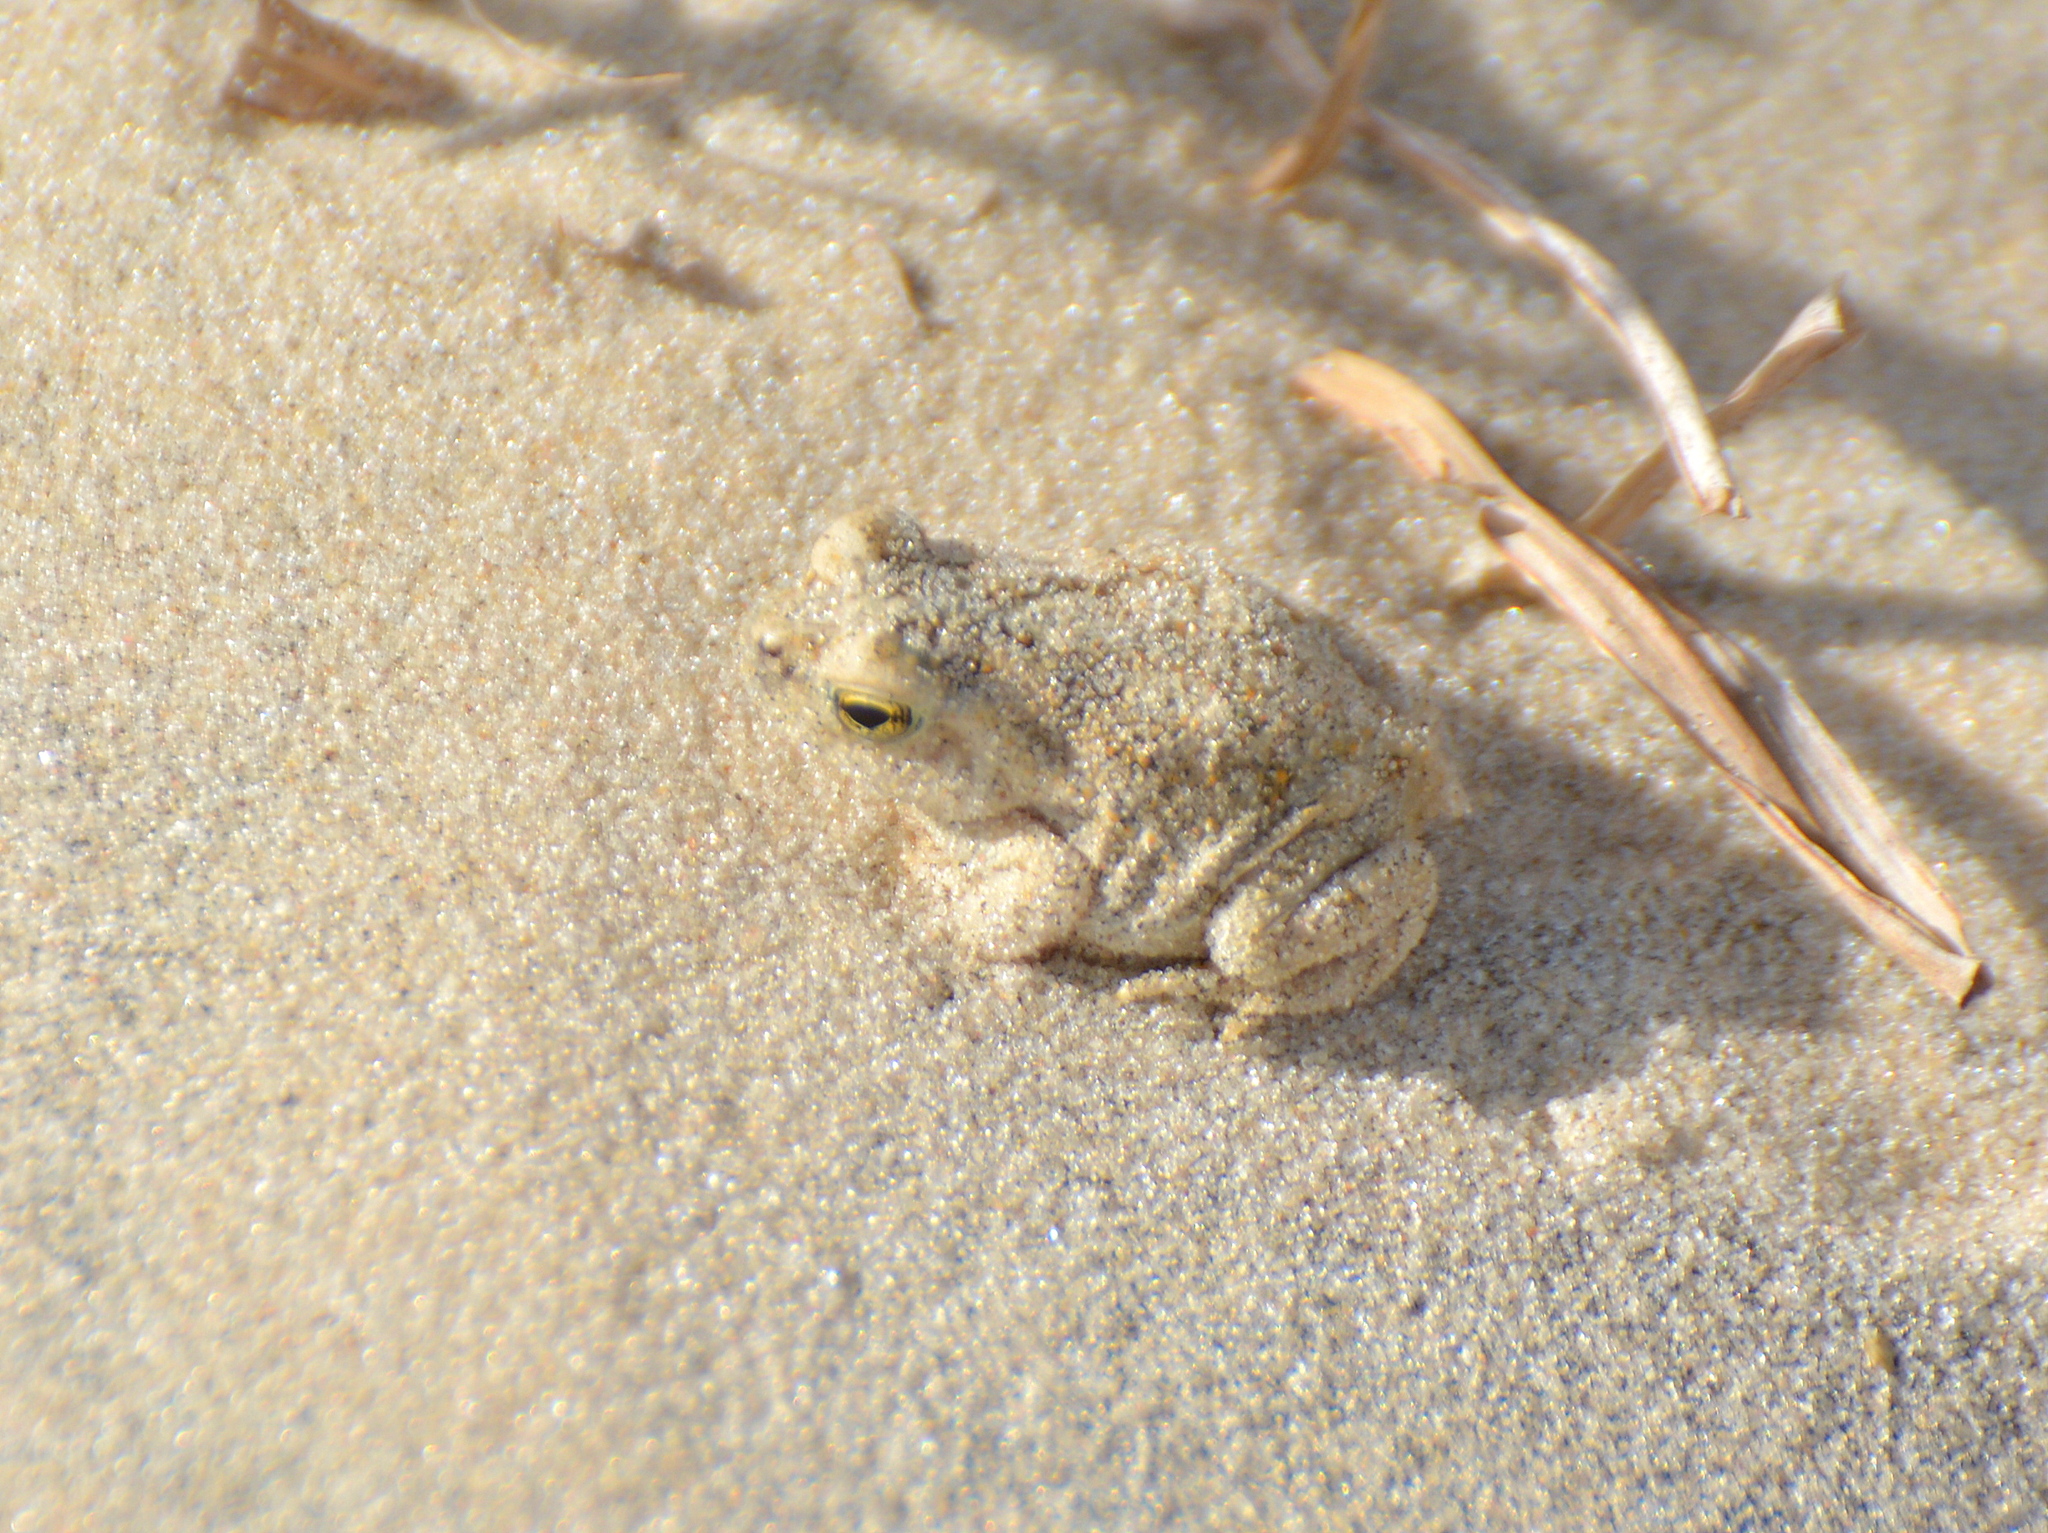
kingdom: Animalia
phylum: Chordata
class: Amphibia
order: Anura
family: Bufonidae
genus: Rhinella
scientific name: Rhinella arenarum
